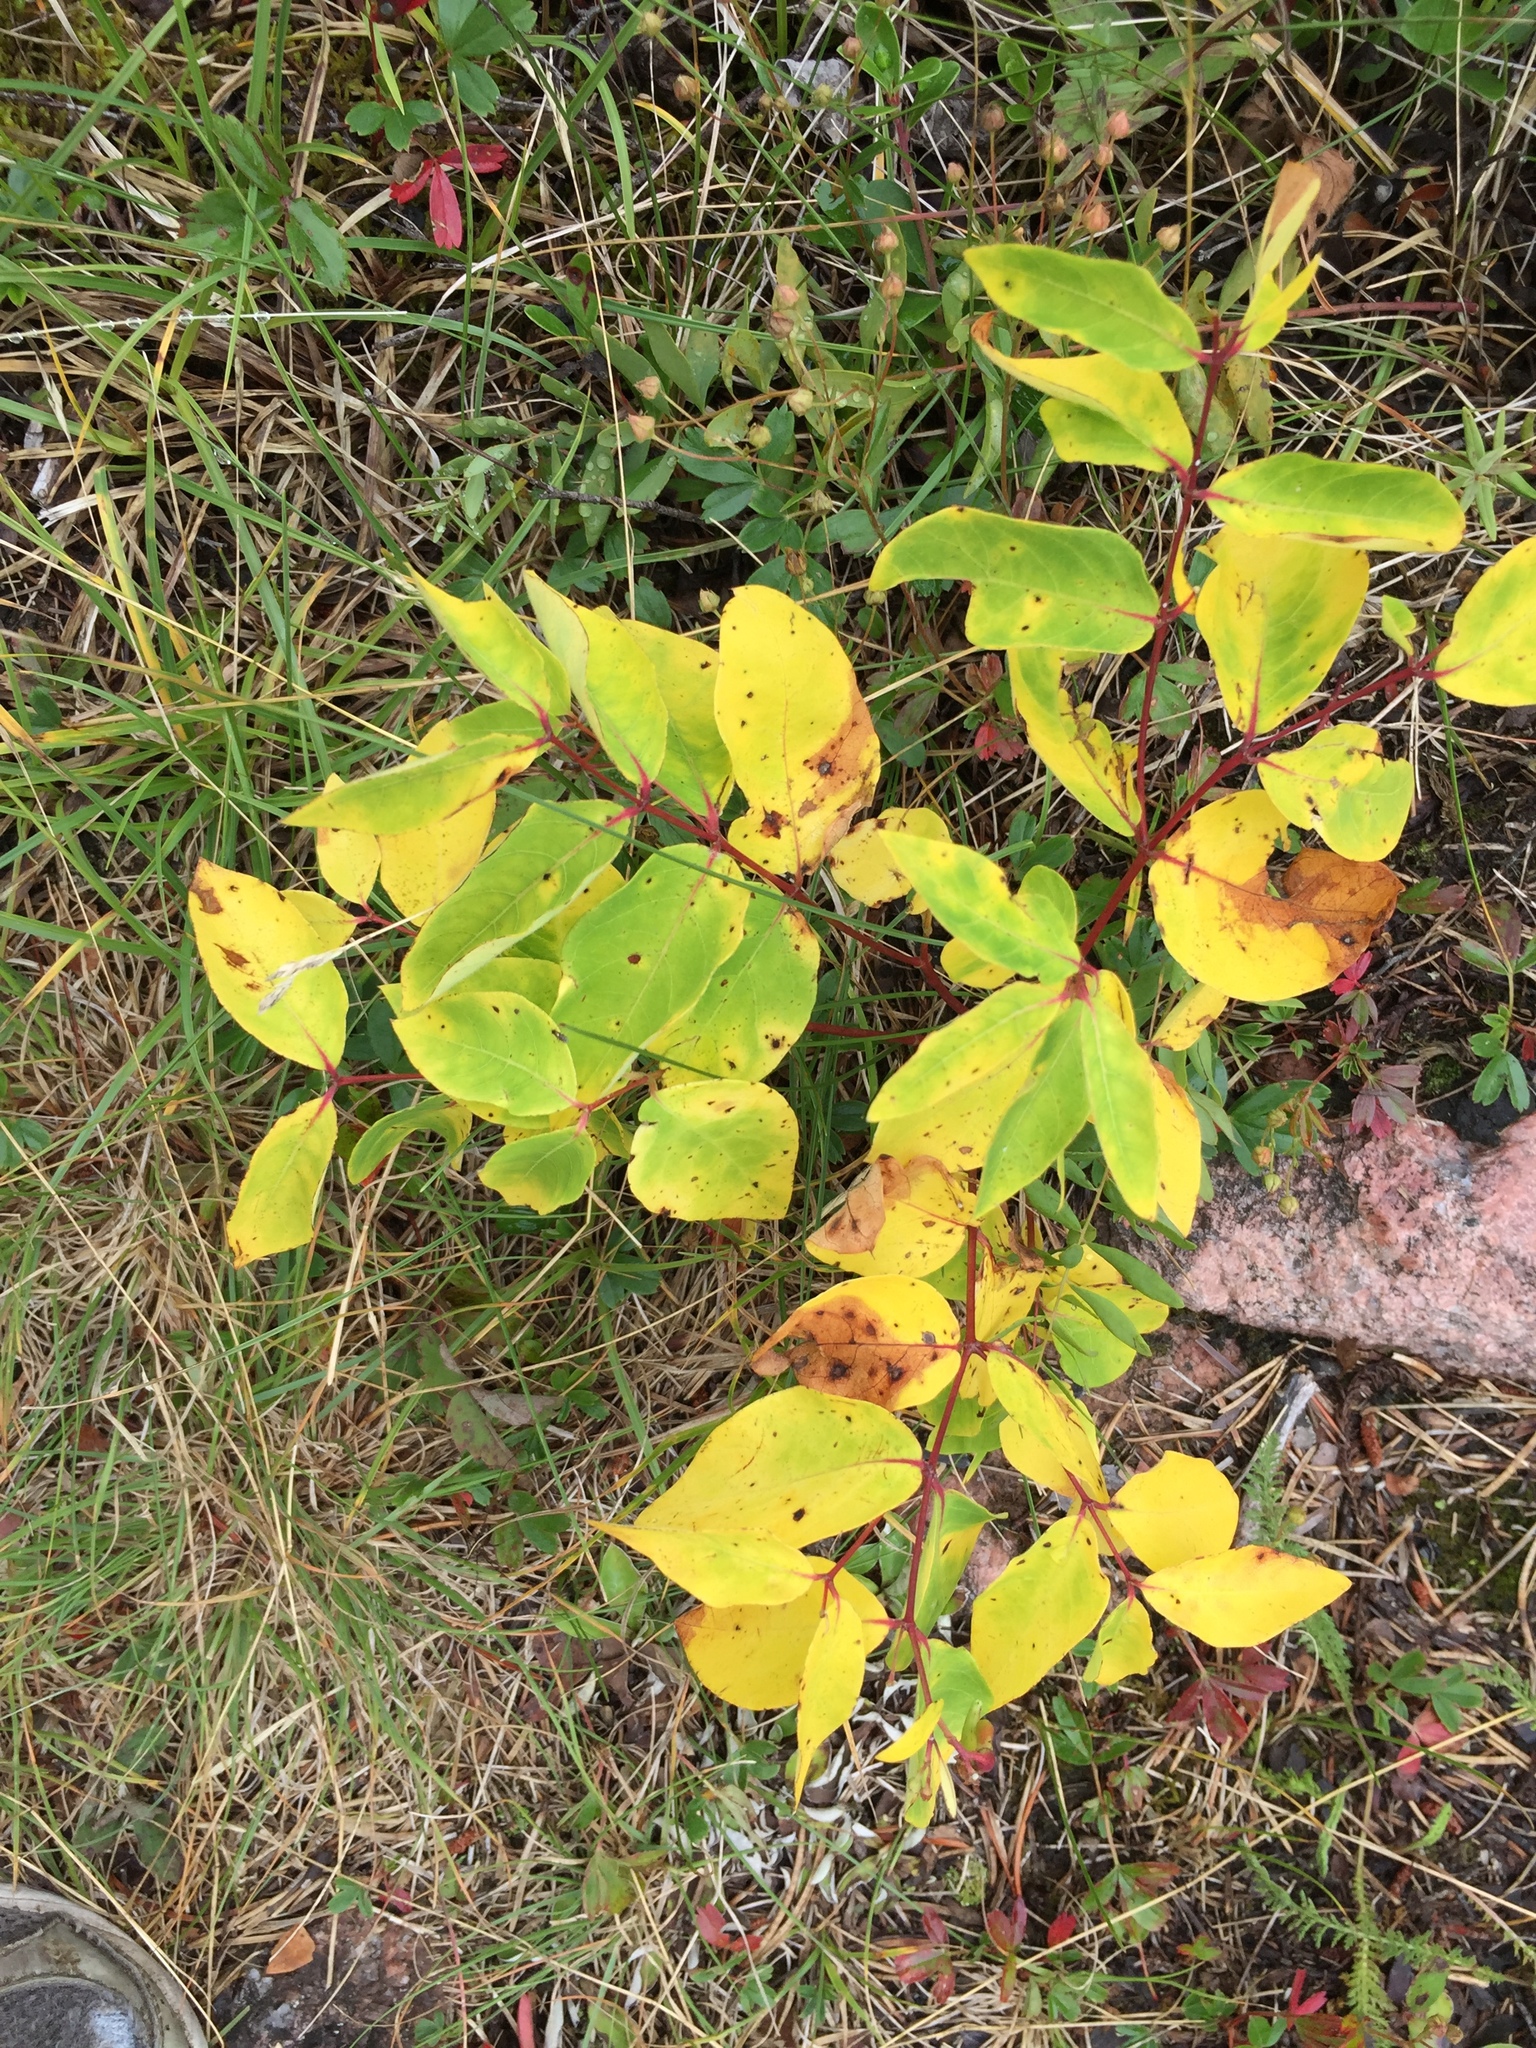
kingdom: Plantae
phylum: Tracheophyta
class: Magnoliopsida
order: Gentianales
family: Apocynaceae
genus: Apocynum
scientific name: Apocynum androsaemifolium
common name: Spreading dogbane
